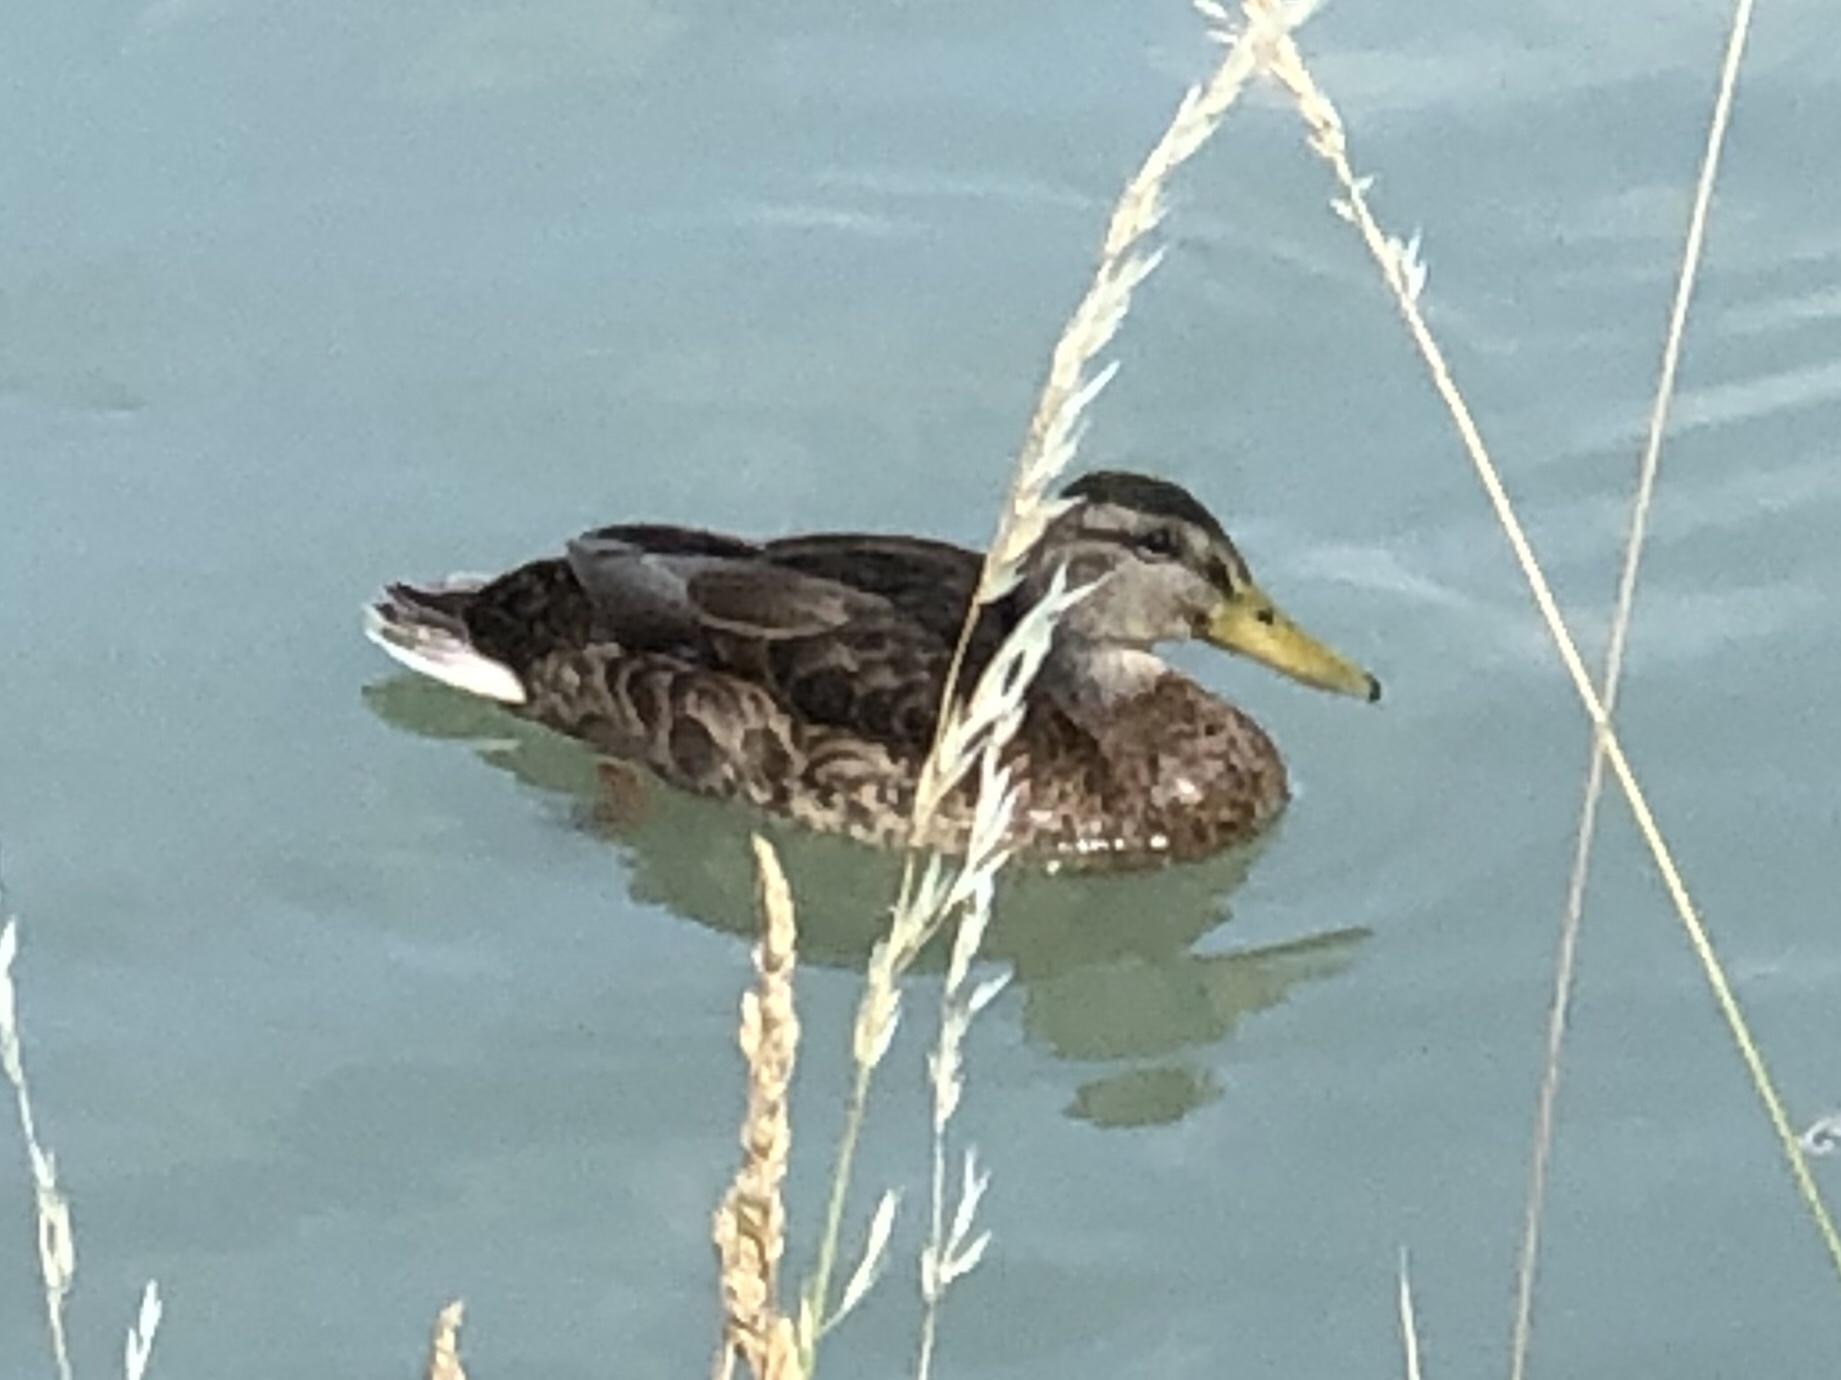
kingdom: Animalia
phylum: Chordata
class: Aves
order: Anseriformes
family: Anatidae
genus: Anas
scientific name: Anas platyrhynchos
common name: Mallard
